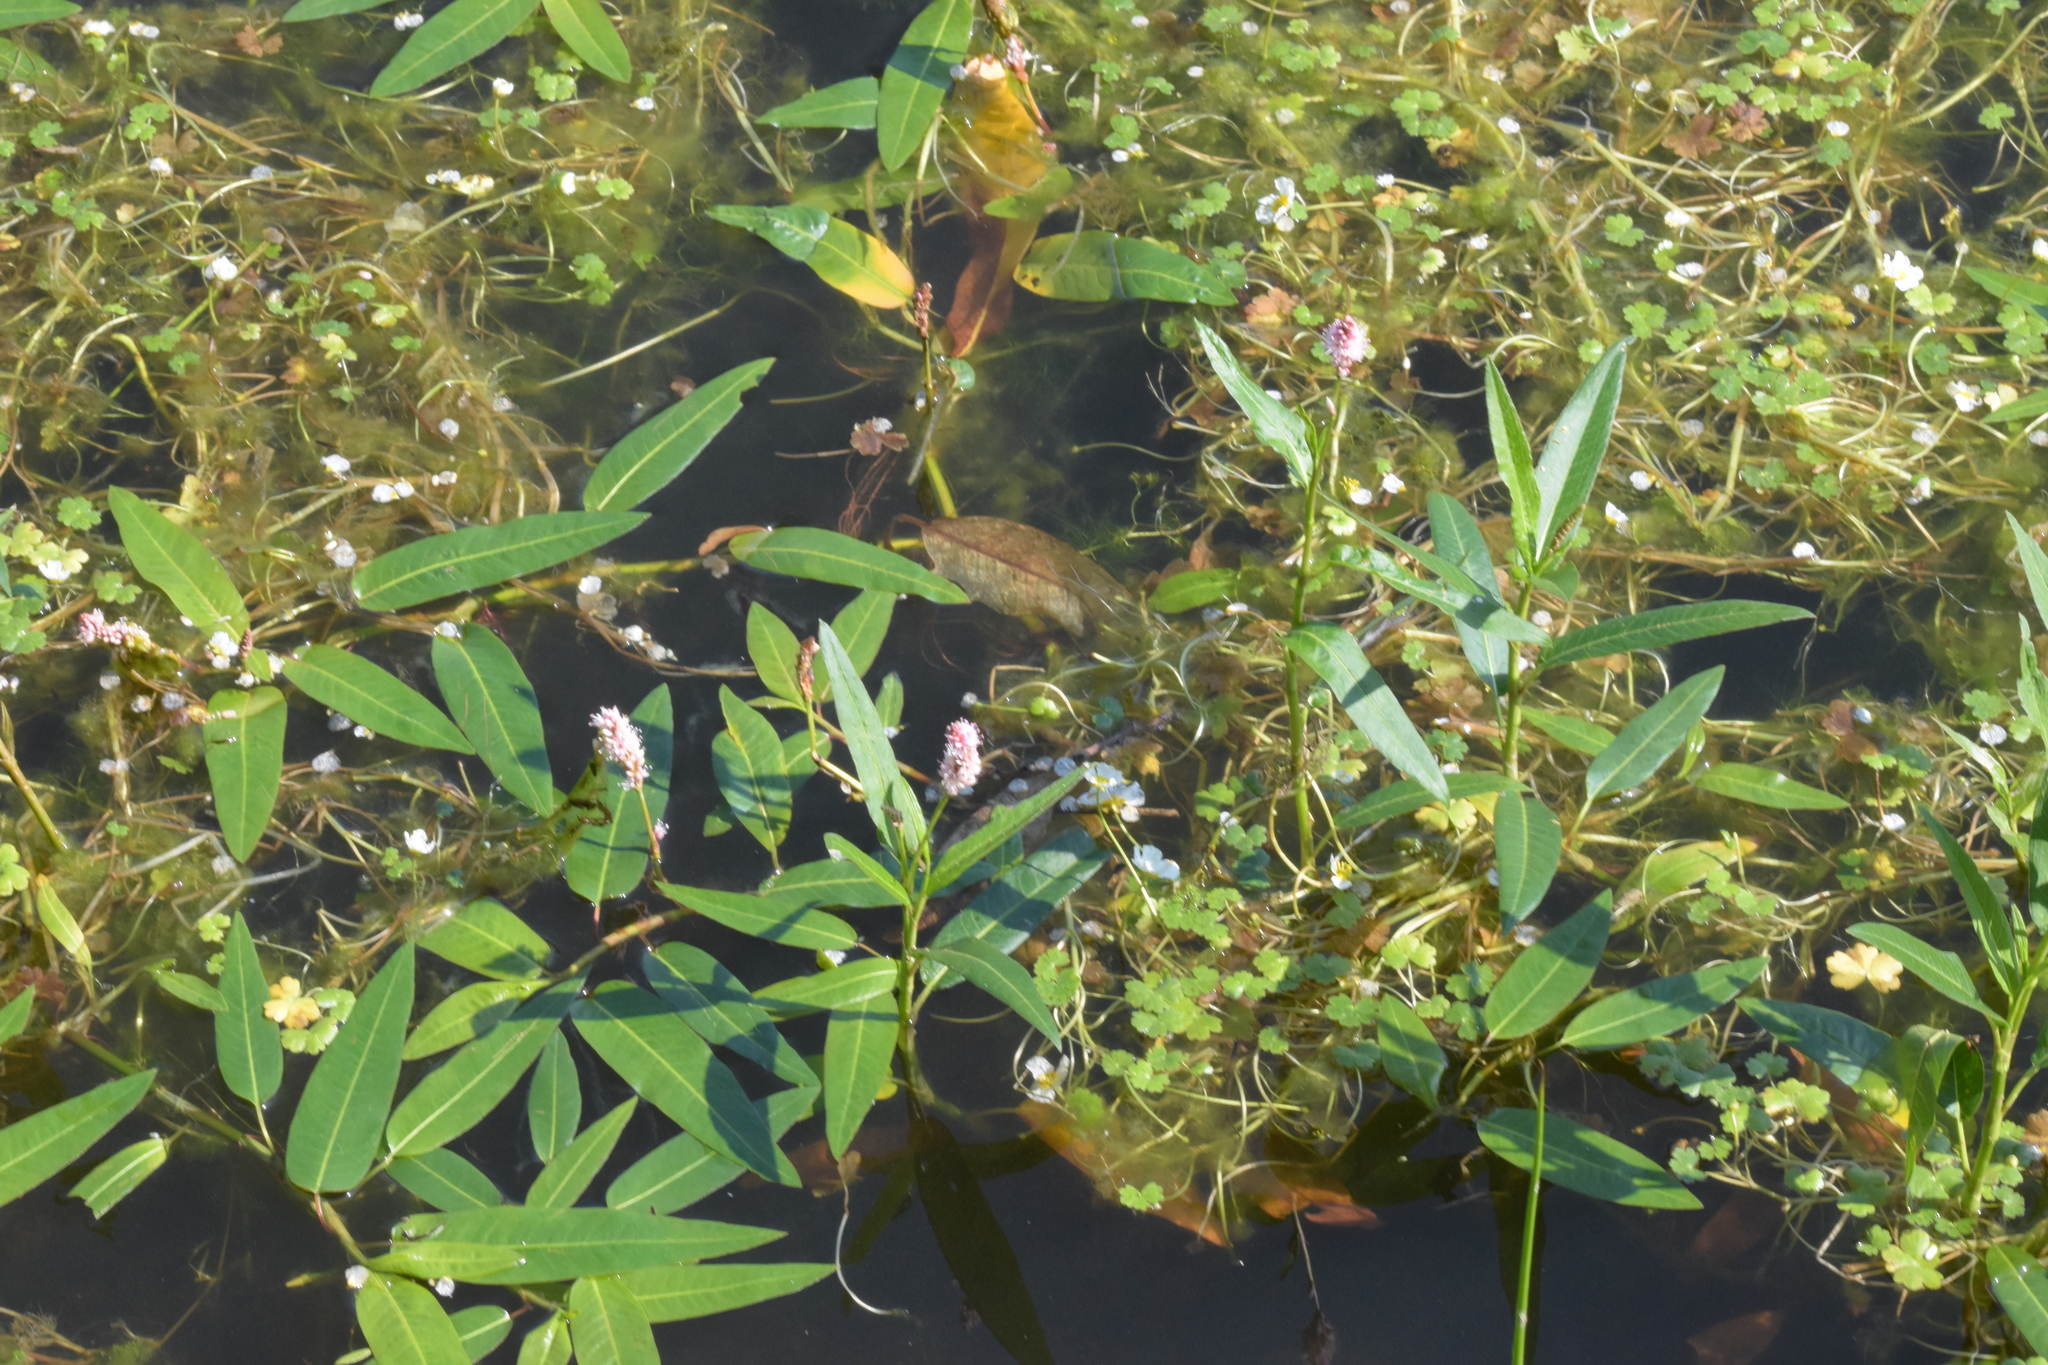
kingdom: Plantae
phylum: Tracheophyta
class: Magnoliopsida
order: Caryophyllales
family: Polygonaceae
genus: Persicaria
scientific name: Persicaria amphibia
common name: Amphibious bistort
